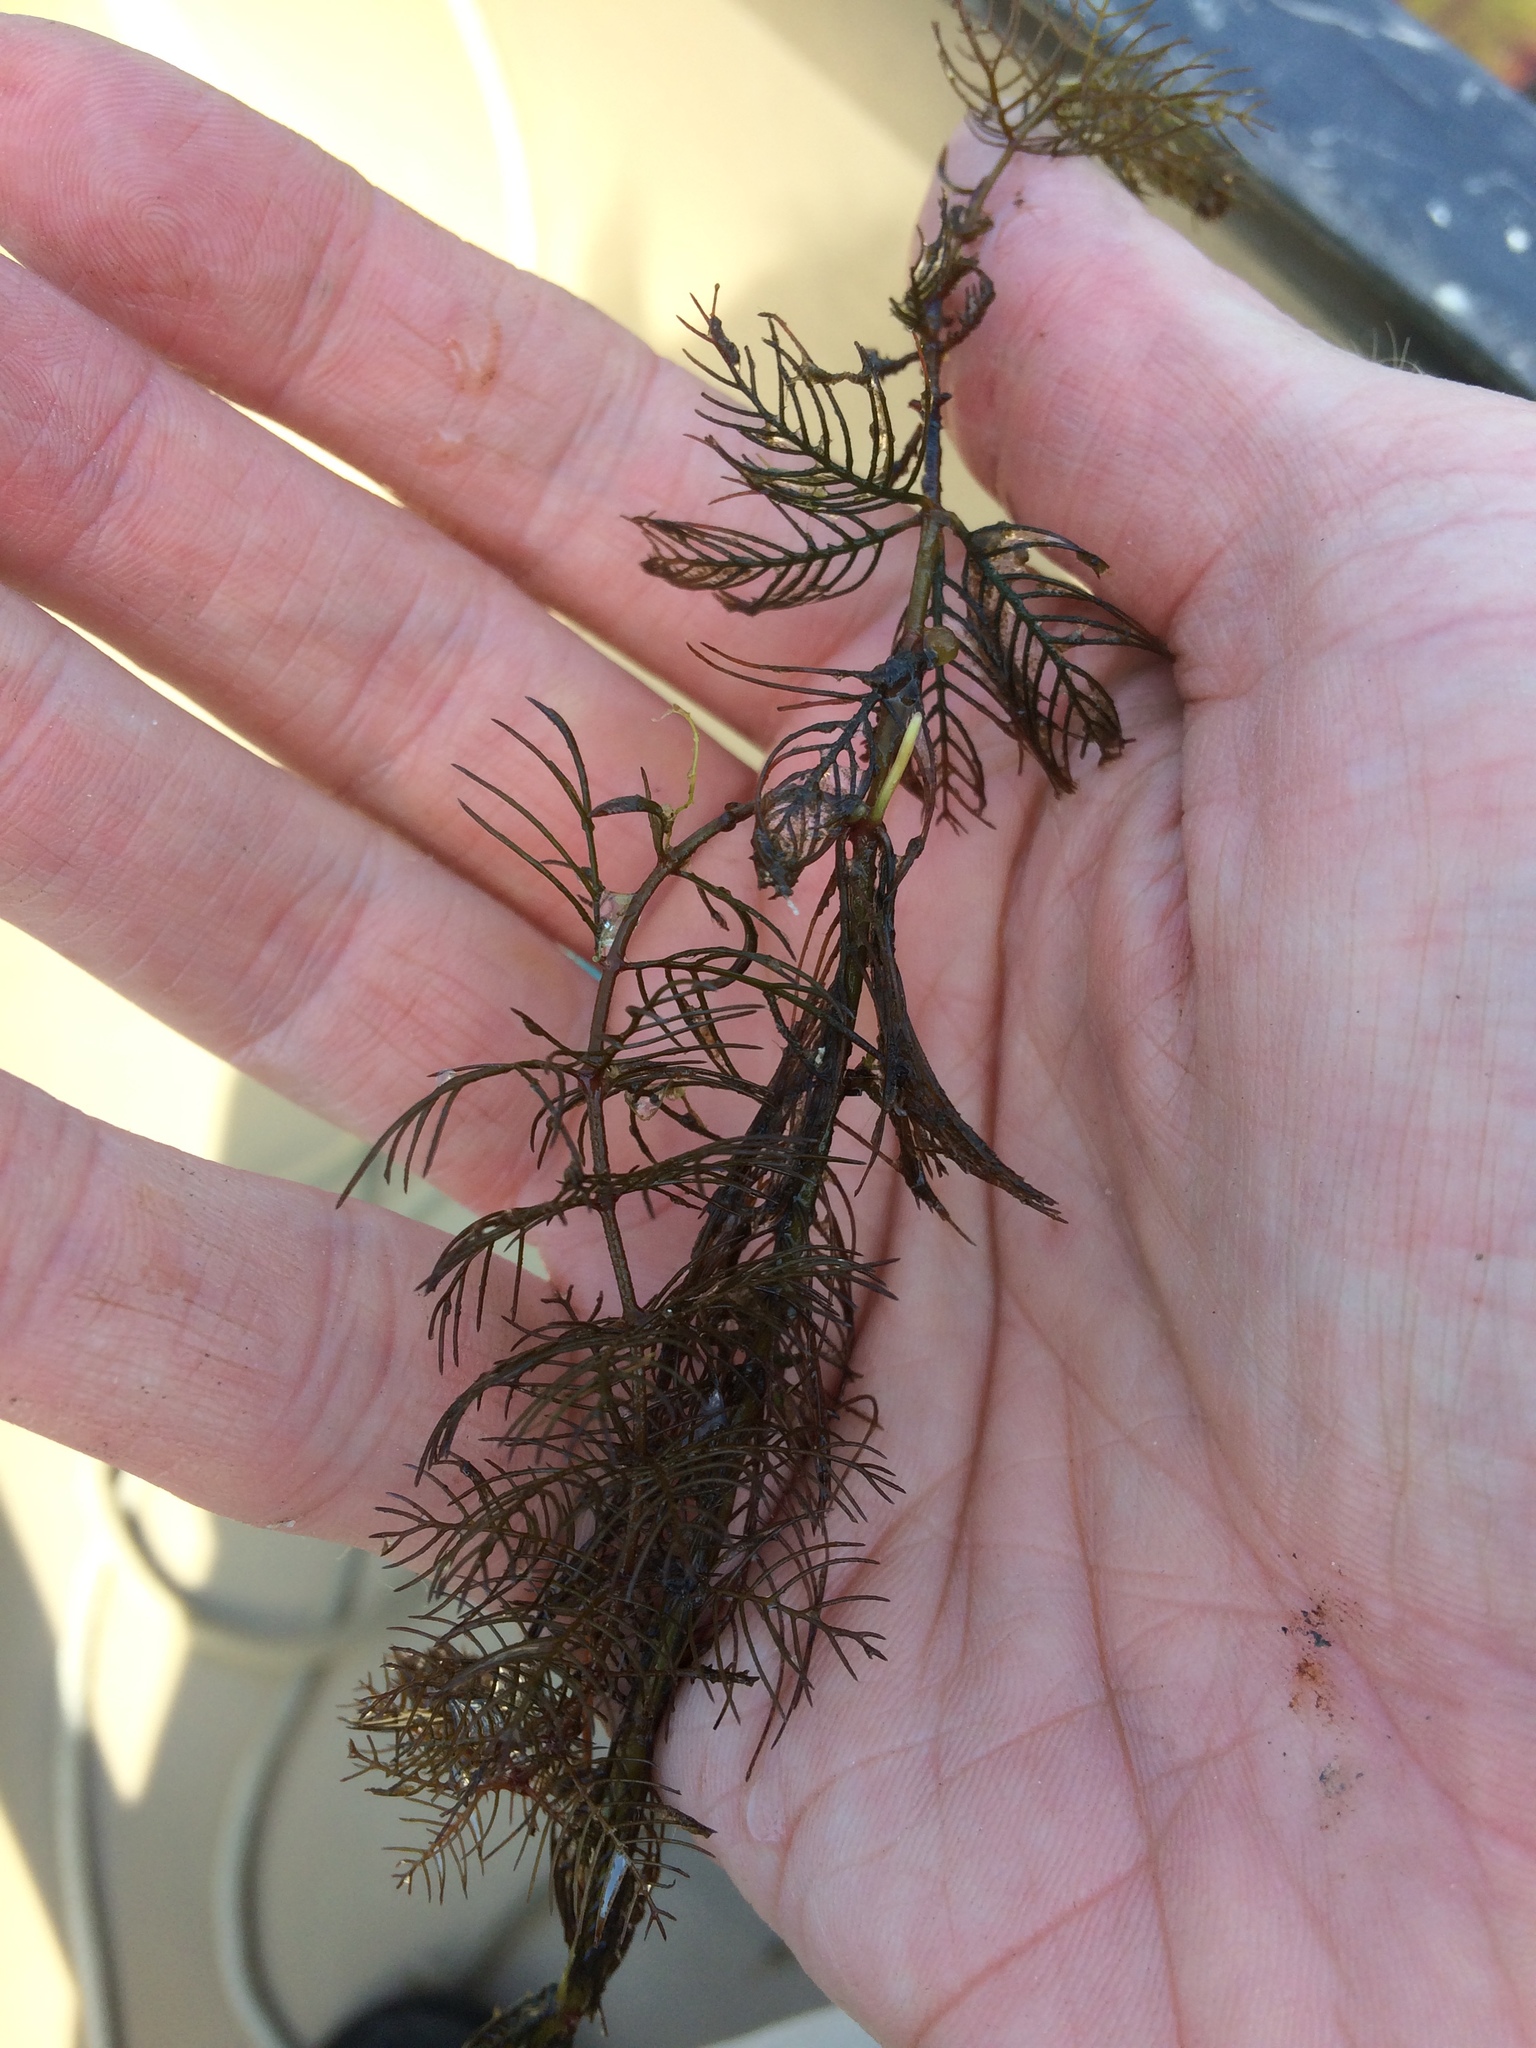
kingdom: Plantae
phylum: Tracheophyta
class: Magnoliopsida
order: Saxifragales
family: Haloragaceae
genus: Myriophyllum
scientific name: Myriophyllum sibiricum
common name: Siberian water-milfoil
